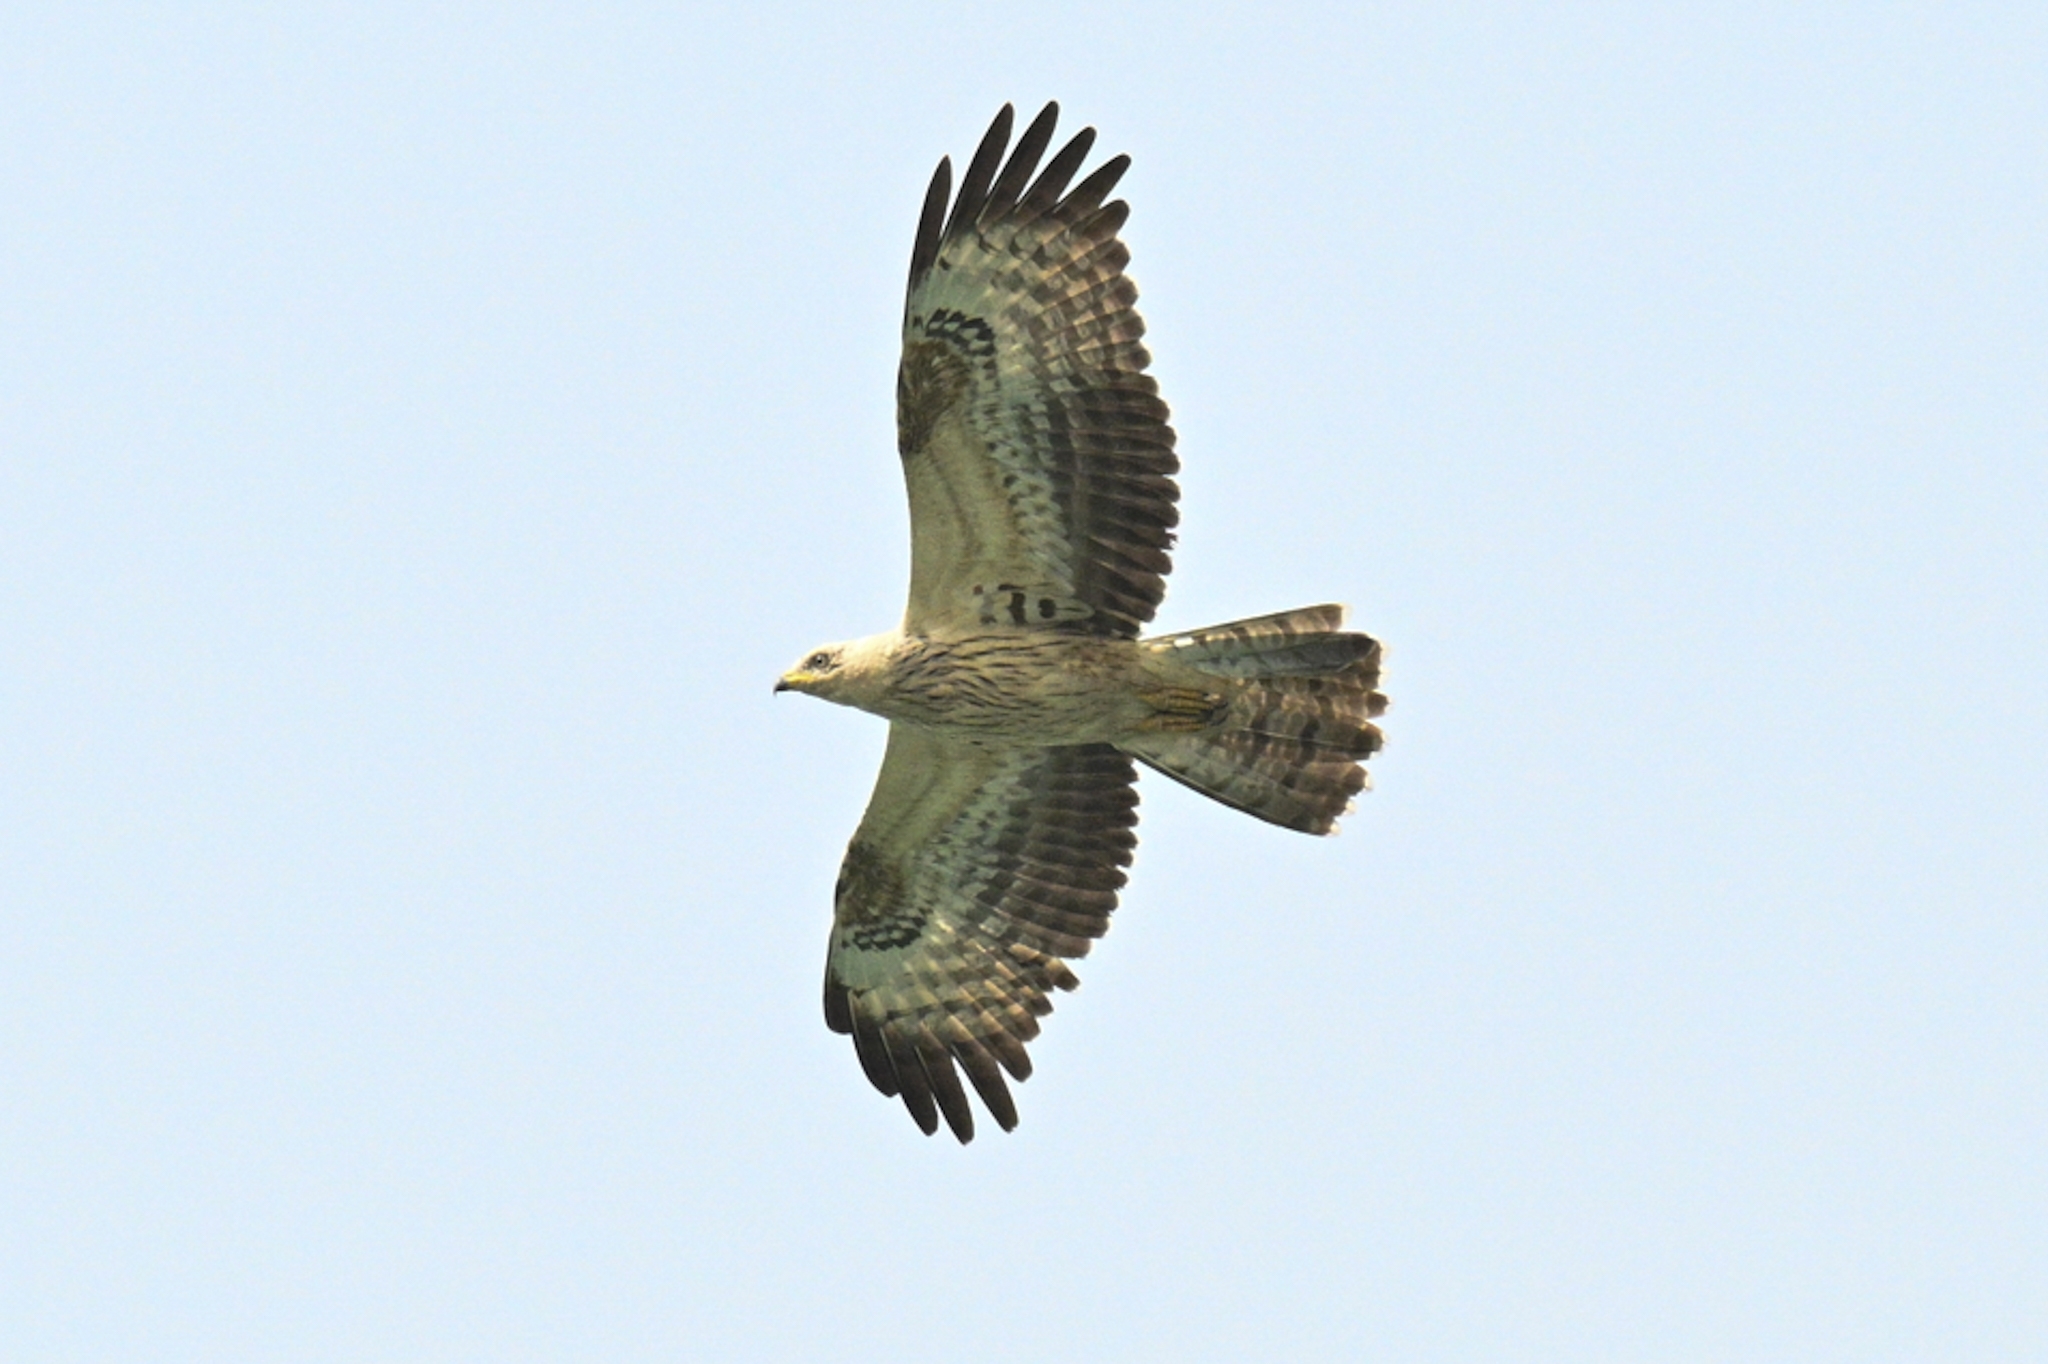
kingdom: Animalia
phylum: Chordata
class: Aves
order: Accipitriformes
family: Accipitridae
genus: Pernis
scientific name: Pernis apivorus
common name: European honey buzzard
